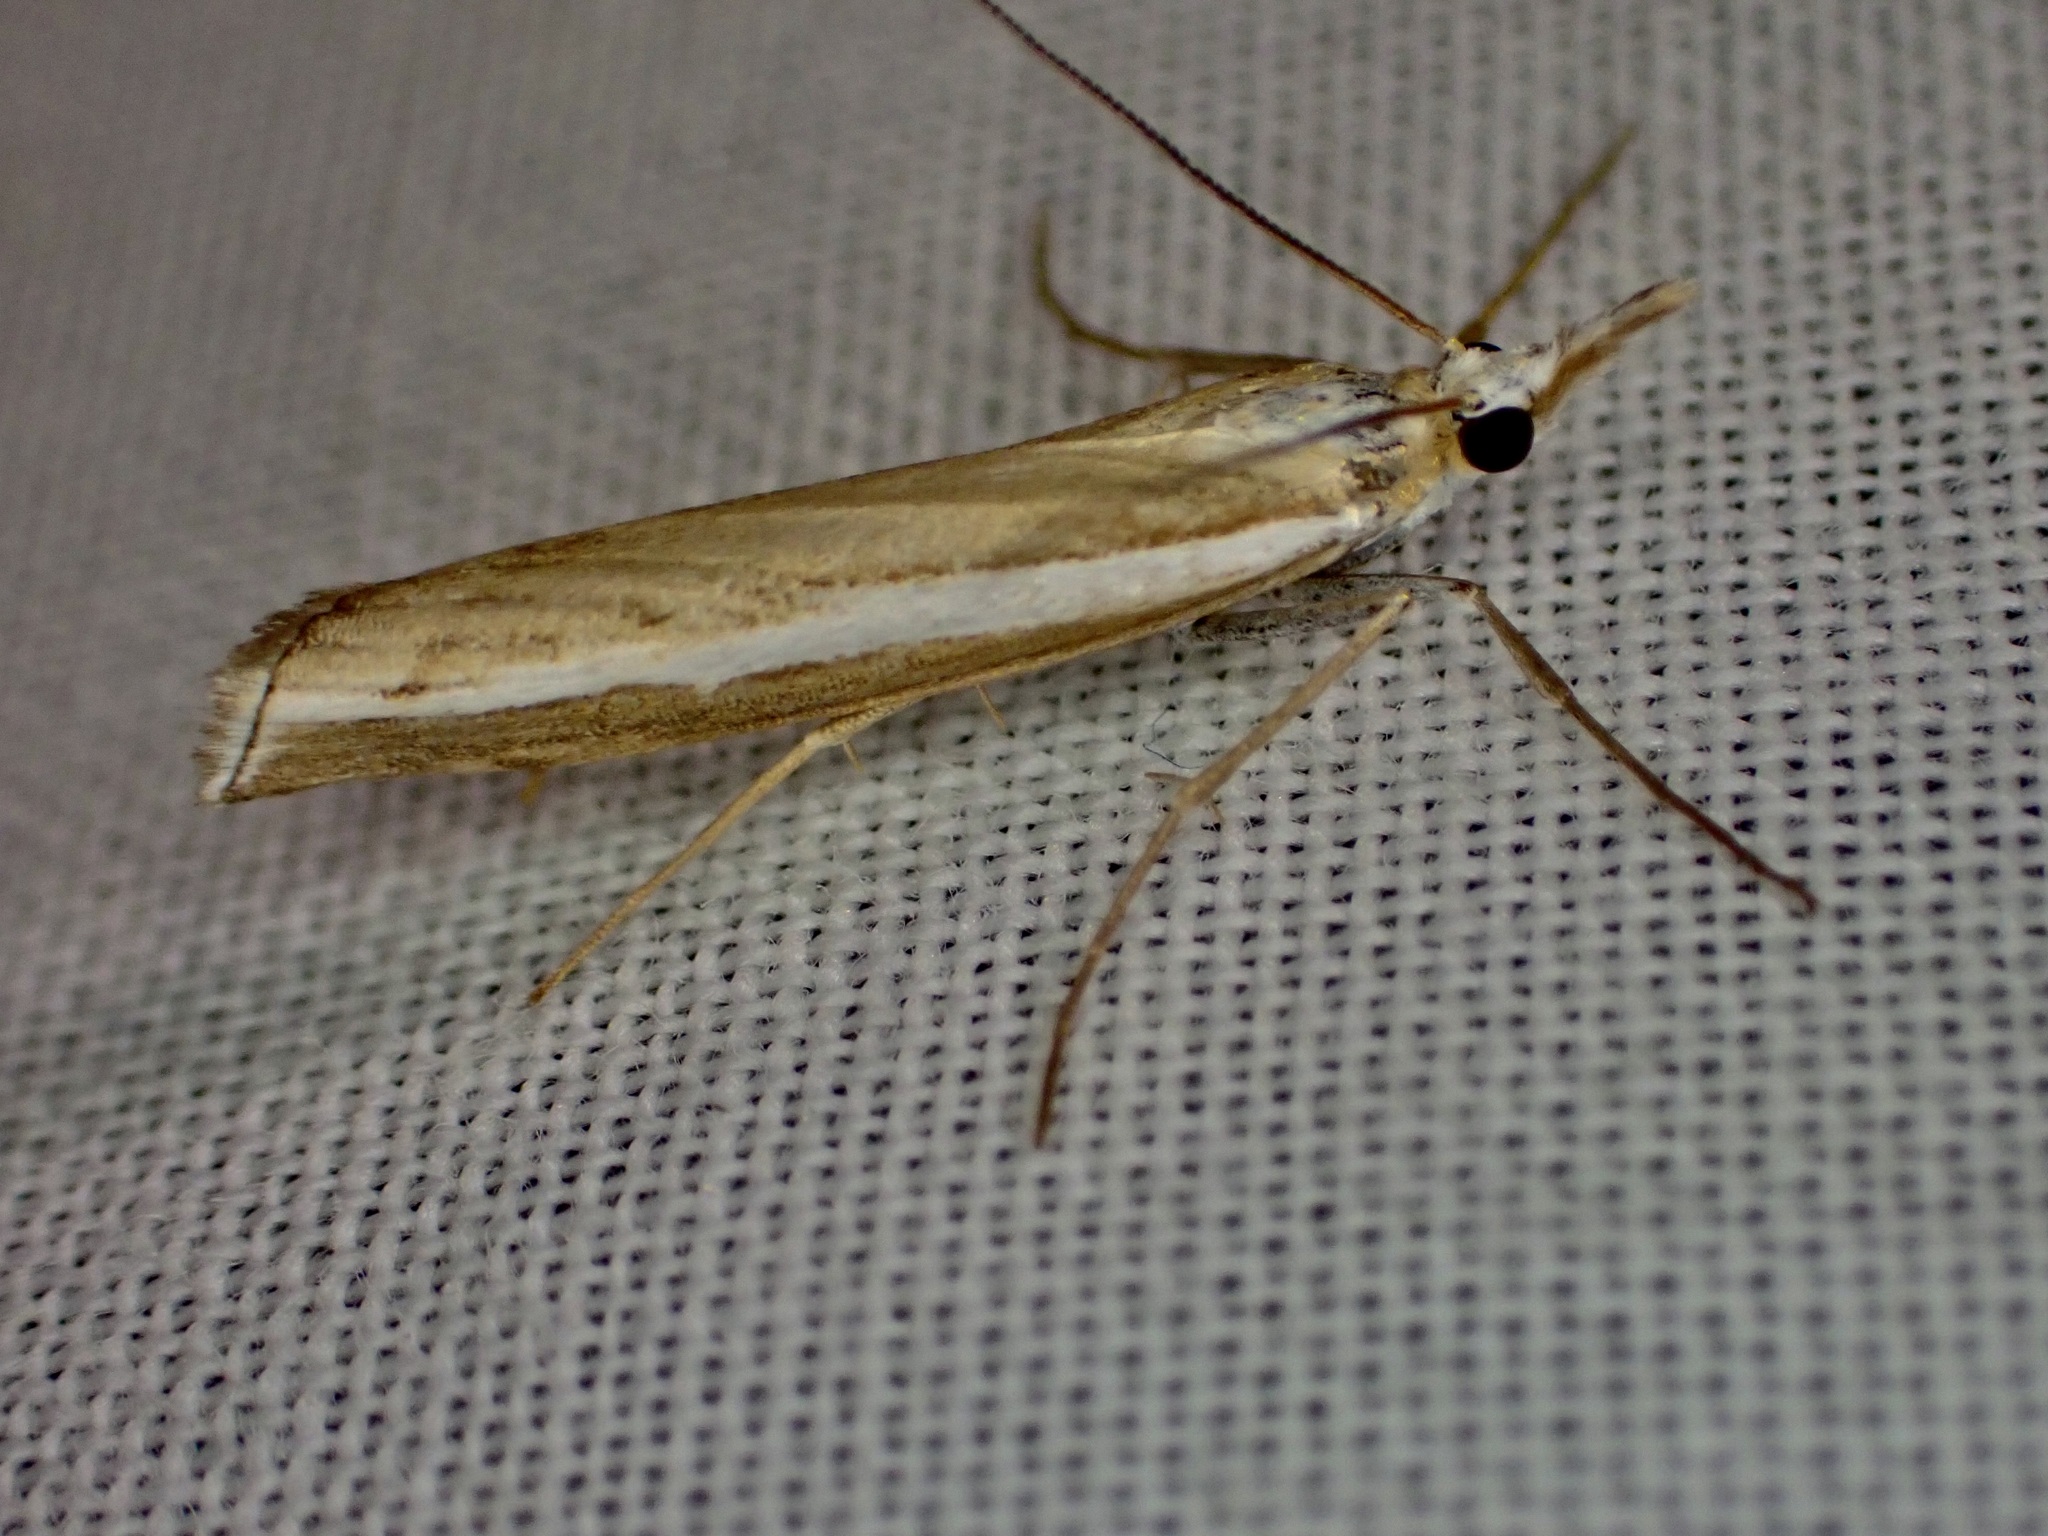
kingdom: Animalia
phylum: Arthropoda
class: Insecta
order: Lepidoptera
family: Crambidae
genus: Orocrambus
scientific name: Orocrambus flexuosellus
